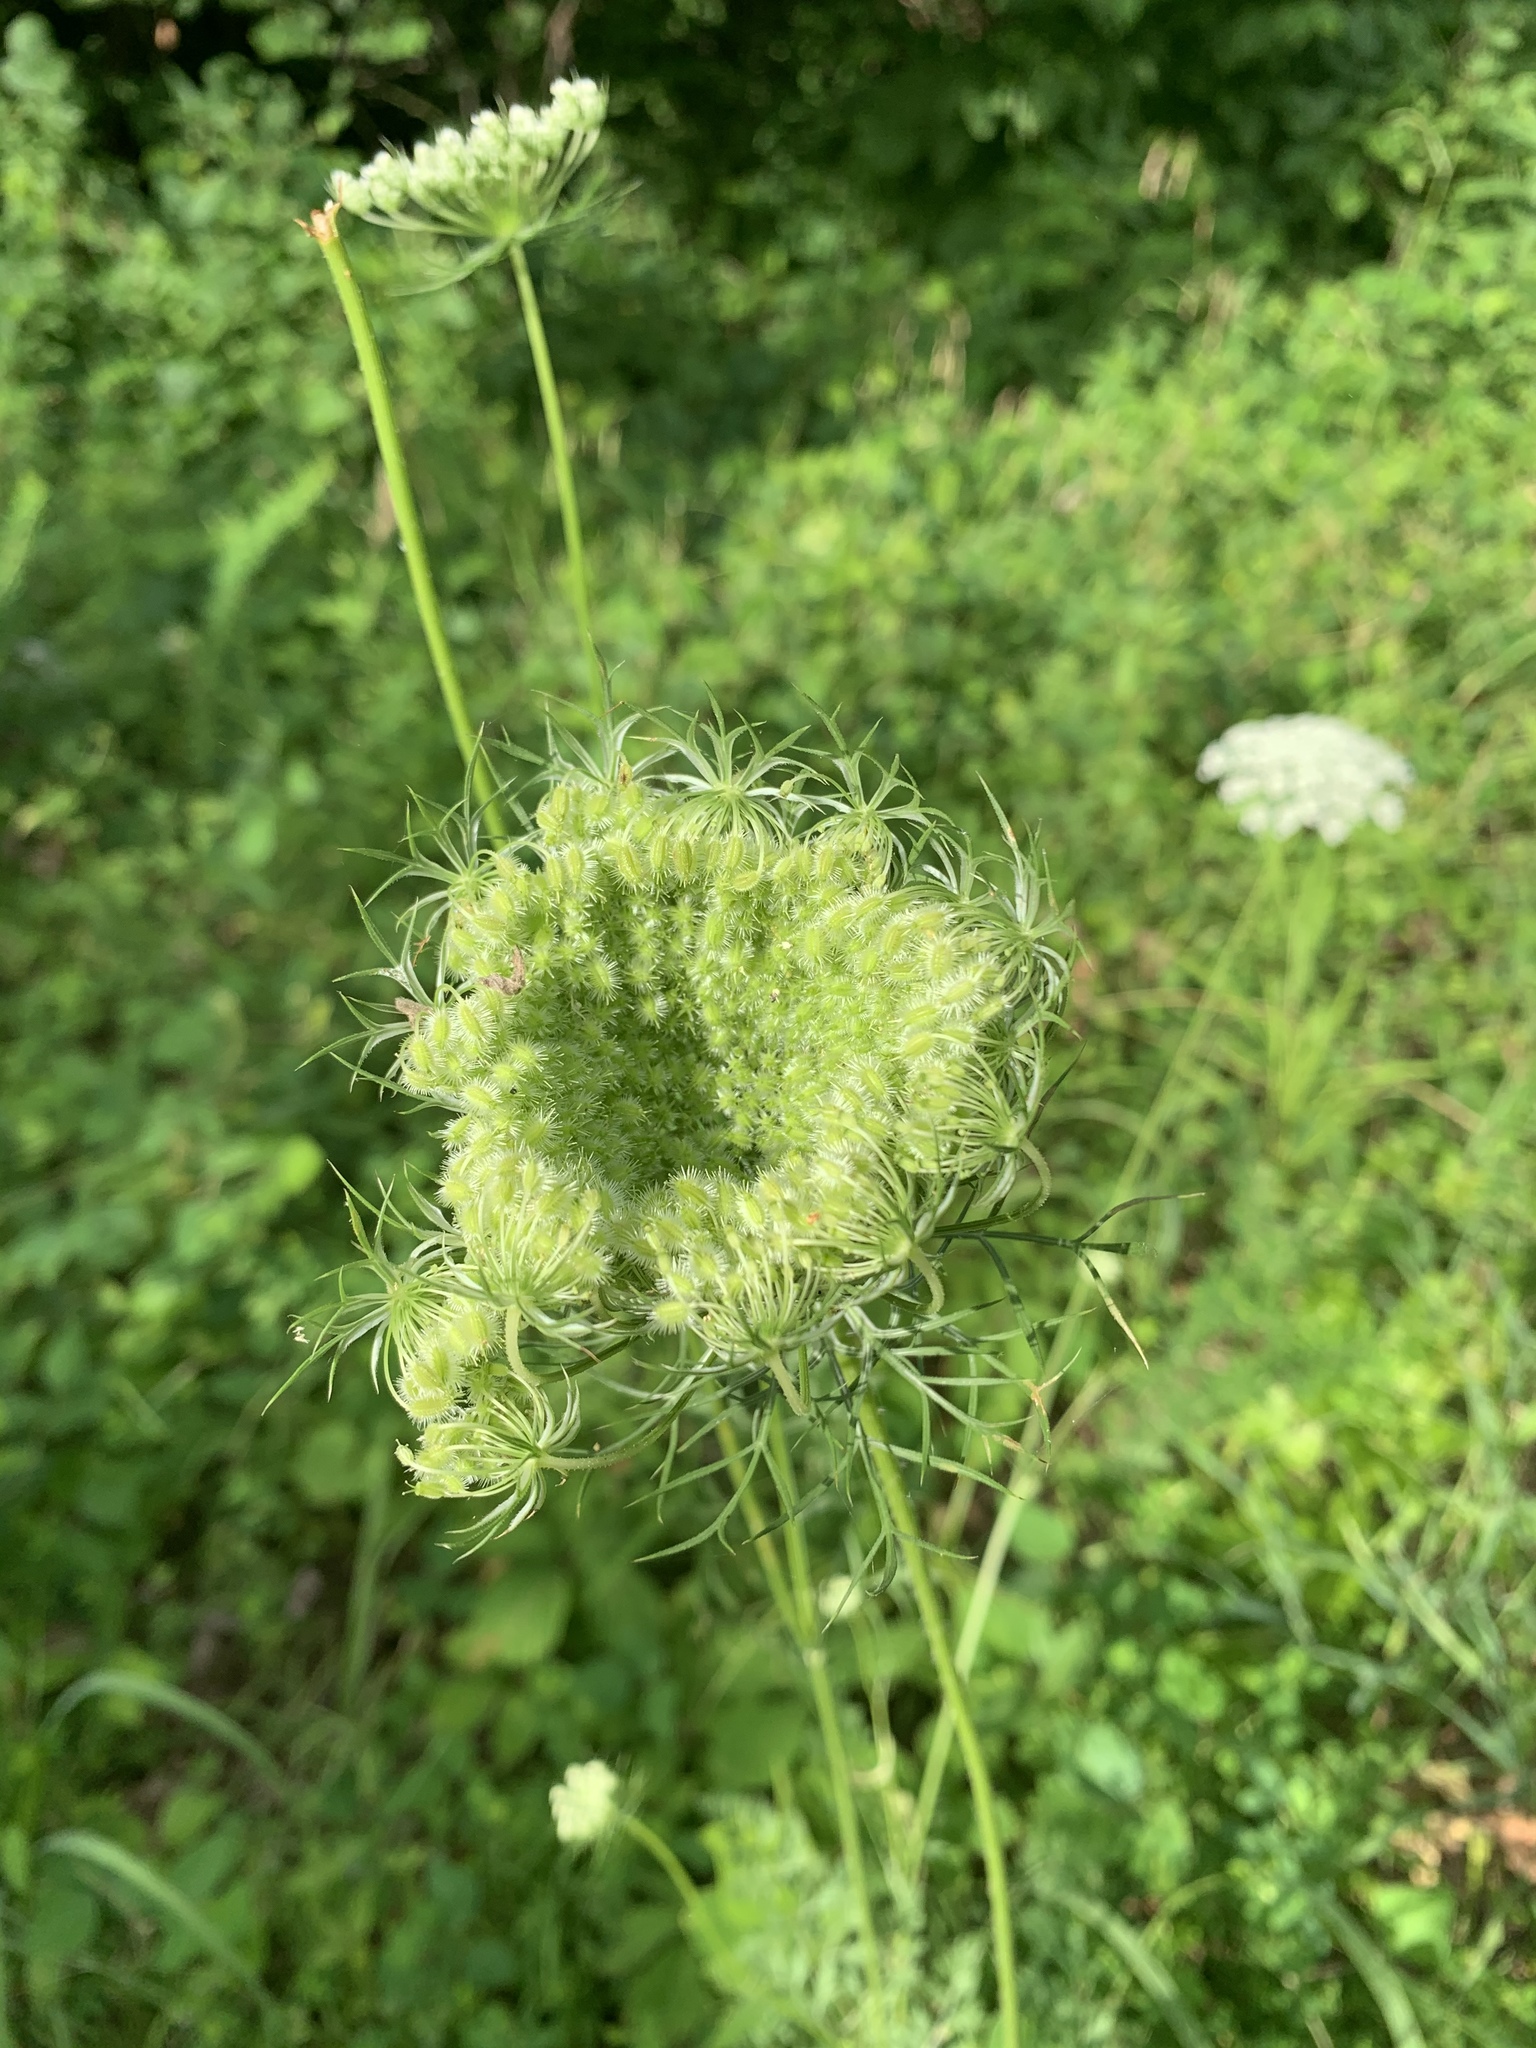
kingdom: Plantae
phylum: Tracheophyta
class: Magnoliopsida
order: Apiales
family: Apiaceae
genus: Daucus
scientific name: Daucus carota
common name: Wild carrot
